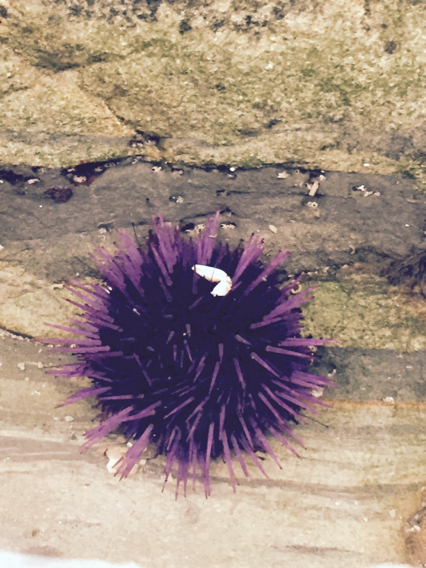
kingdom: Animalia
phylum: Echinodermata
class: Echinoidea
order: Camarodonta
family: Strongylocentrotidae
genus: Strongylocentrotus
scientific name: Strongylocentrotus purpuratus
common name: Purple sea urchin
